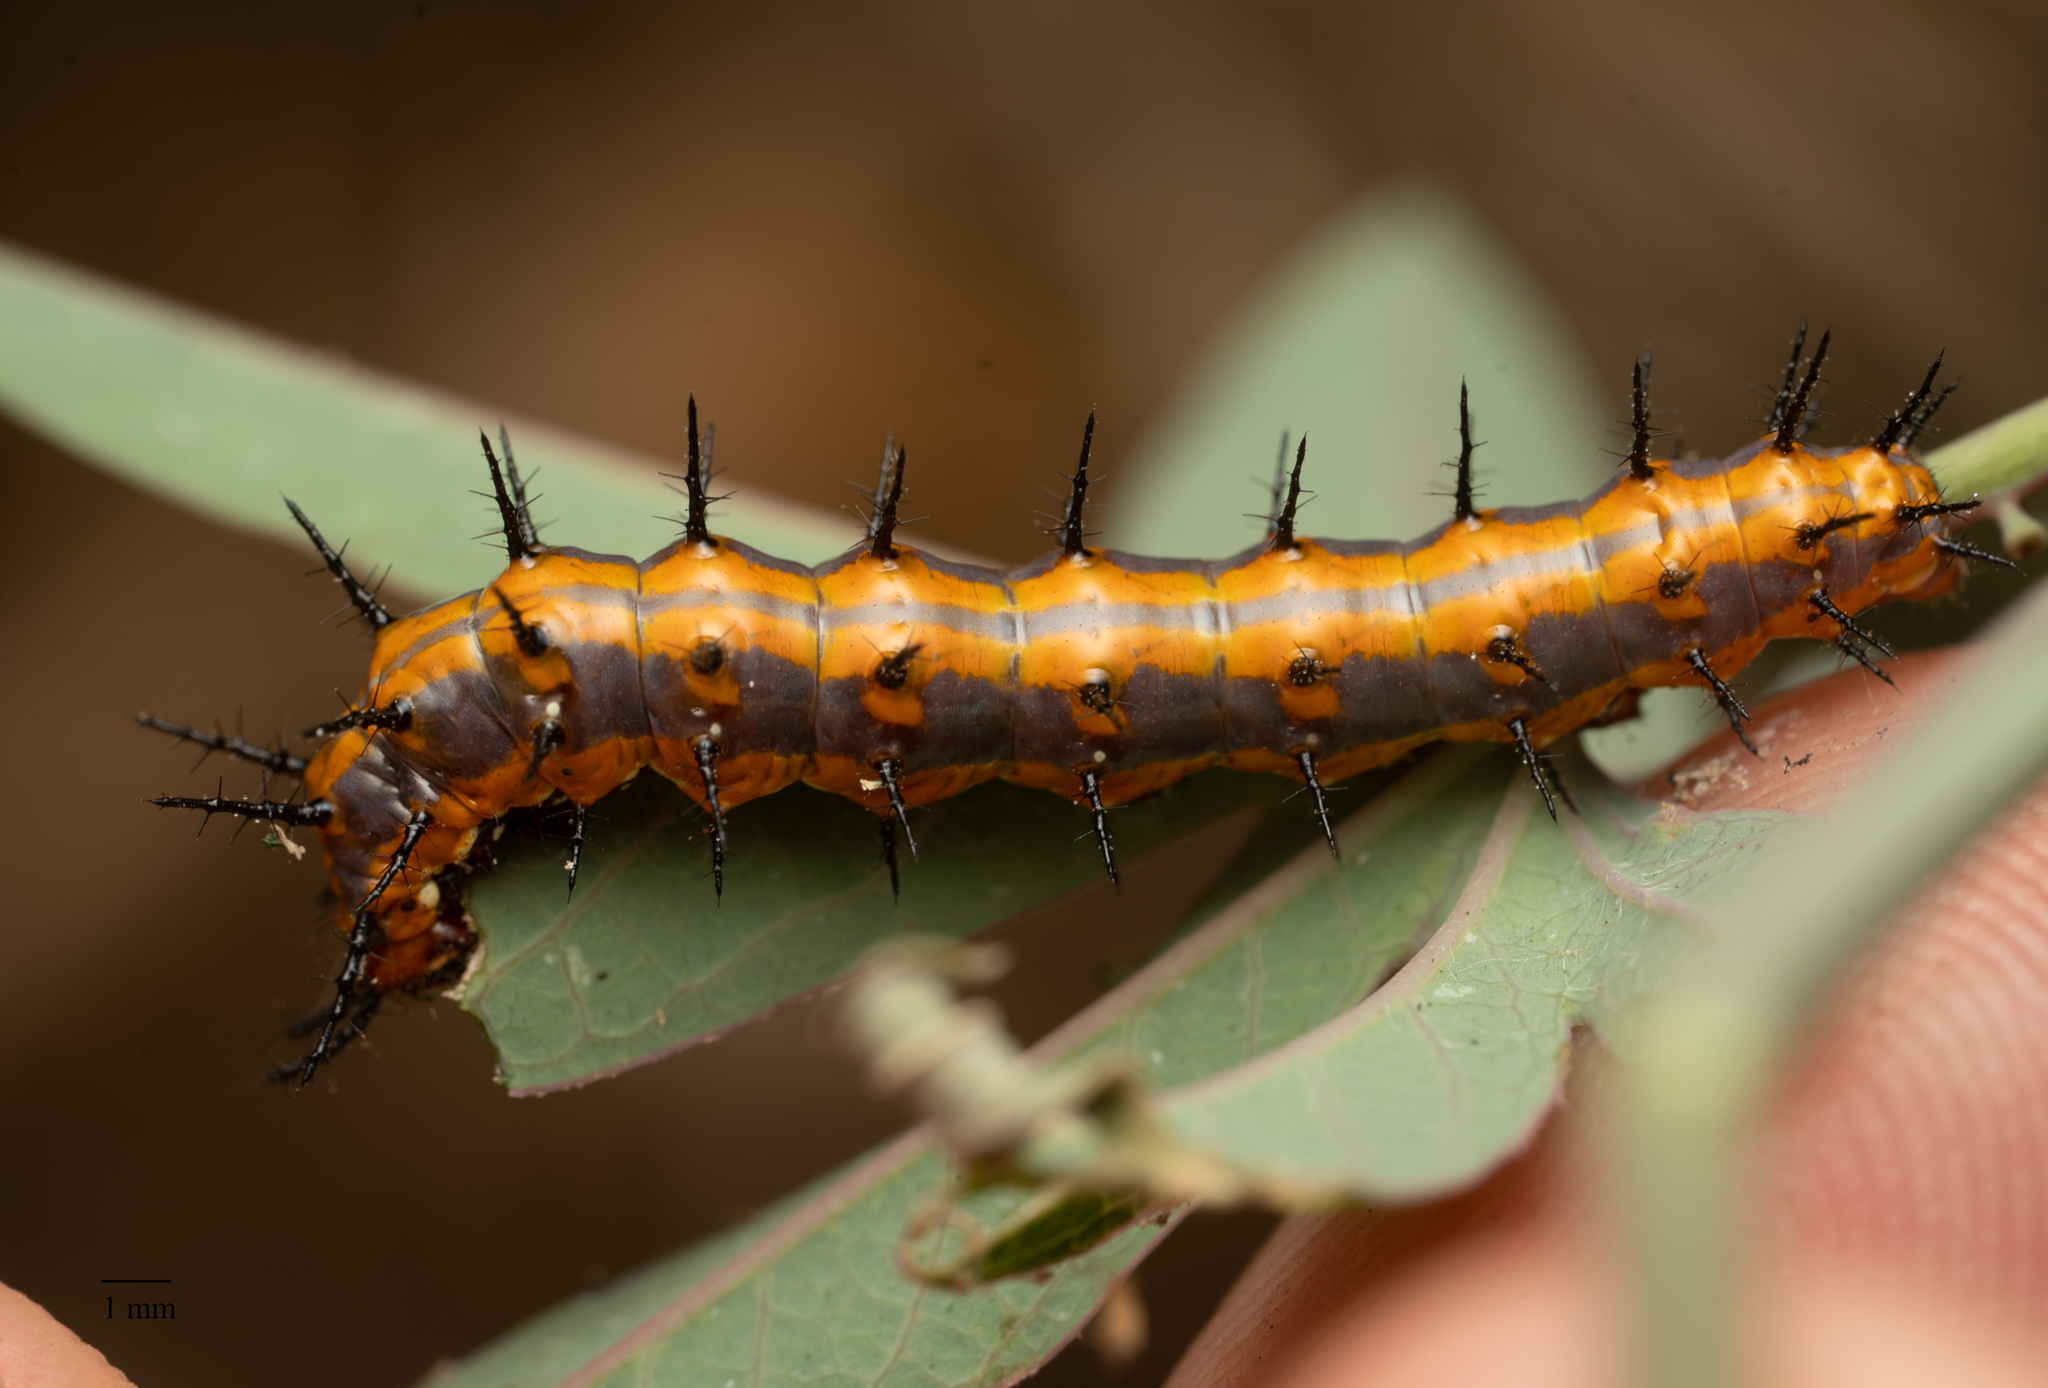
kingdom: Animalia
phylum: Arthropoda
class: Insecta
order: Lepidoptera
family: Nymphalidae
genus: Dione
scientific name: Dione vanillae
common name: Gulf fritillary
